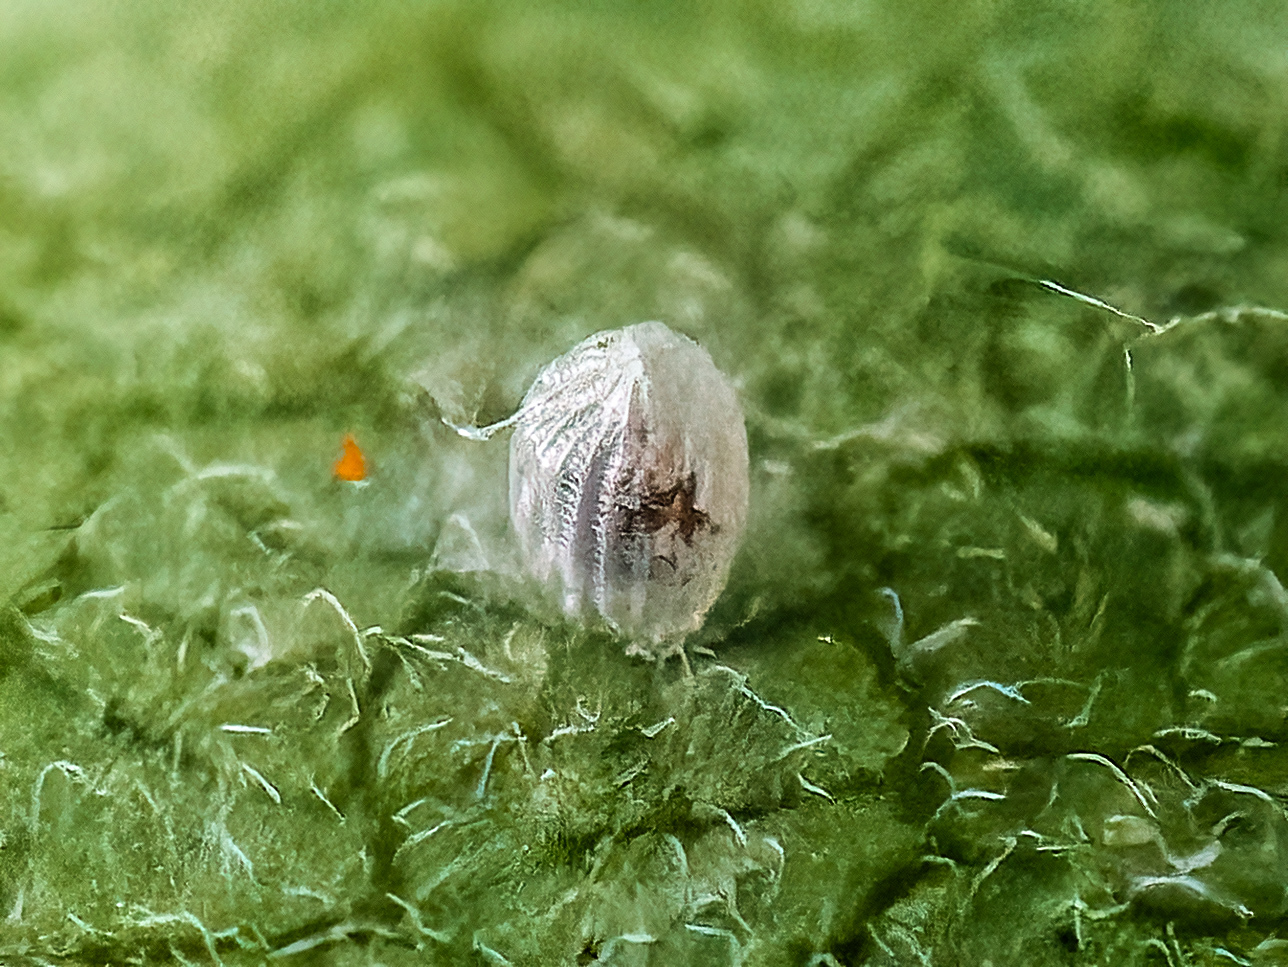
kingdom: Animalia
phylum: Arthropoda
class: Insecta
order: Lepidoptera
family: Nymphalidae
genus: Danaus
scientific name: Danaus plexippus
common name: Monarch
